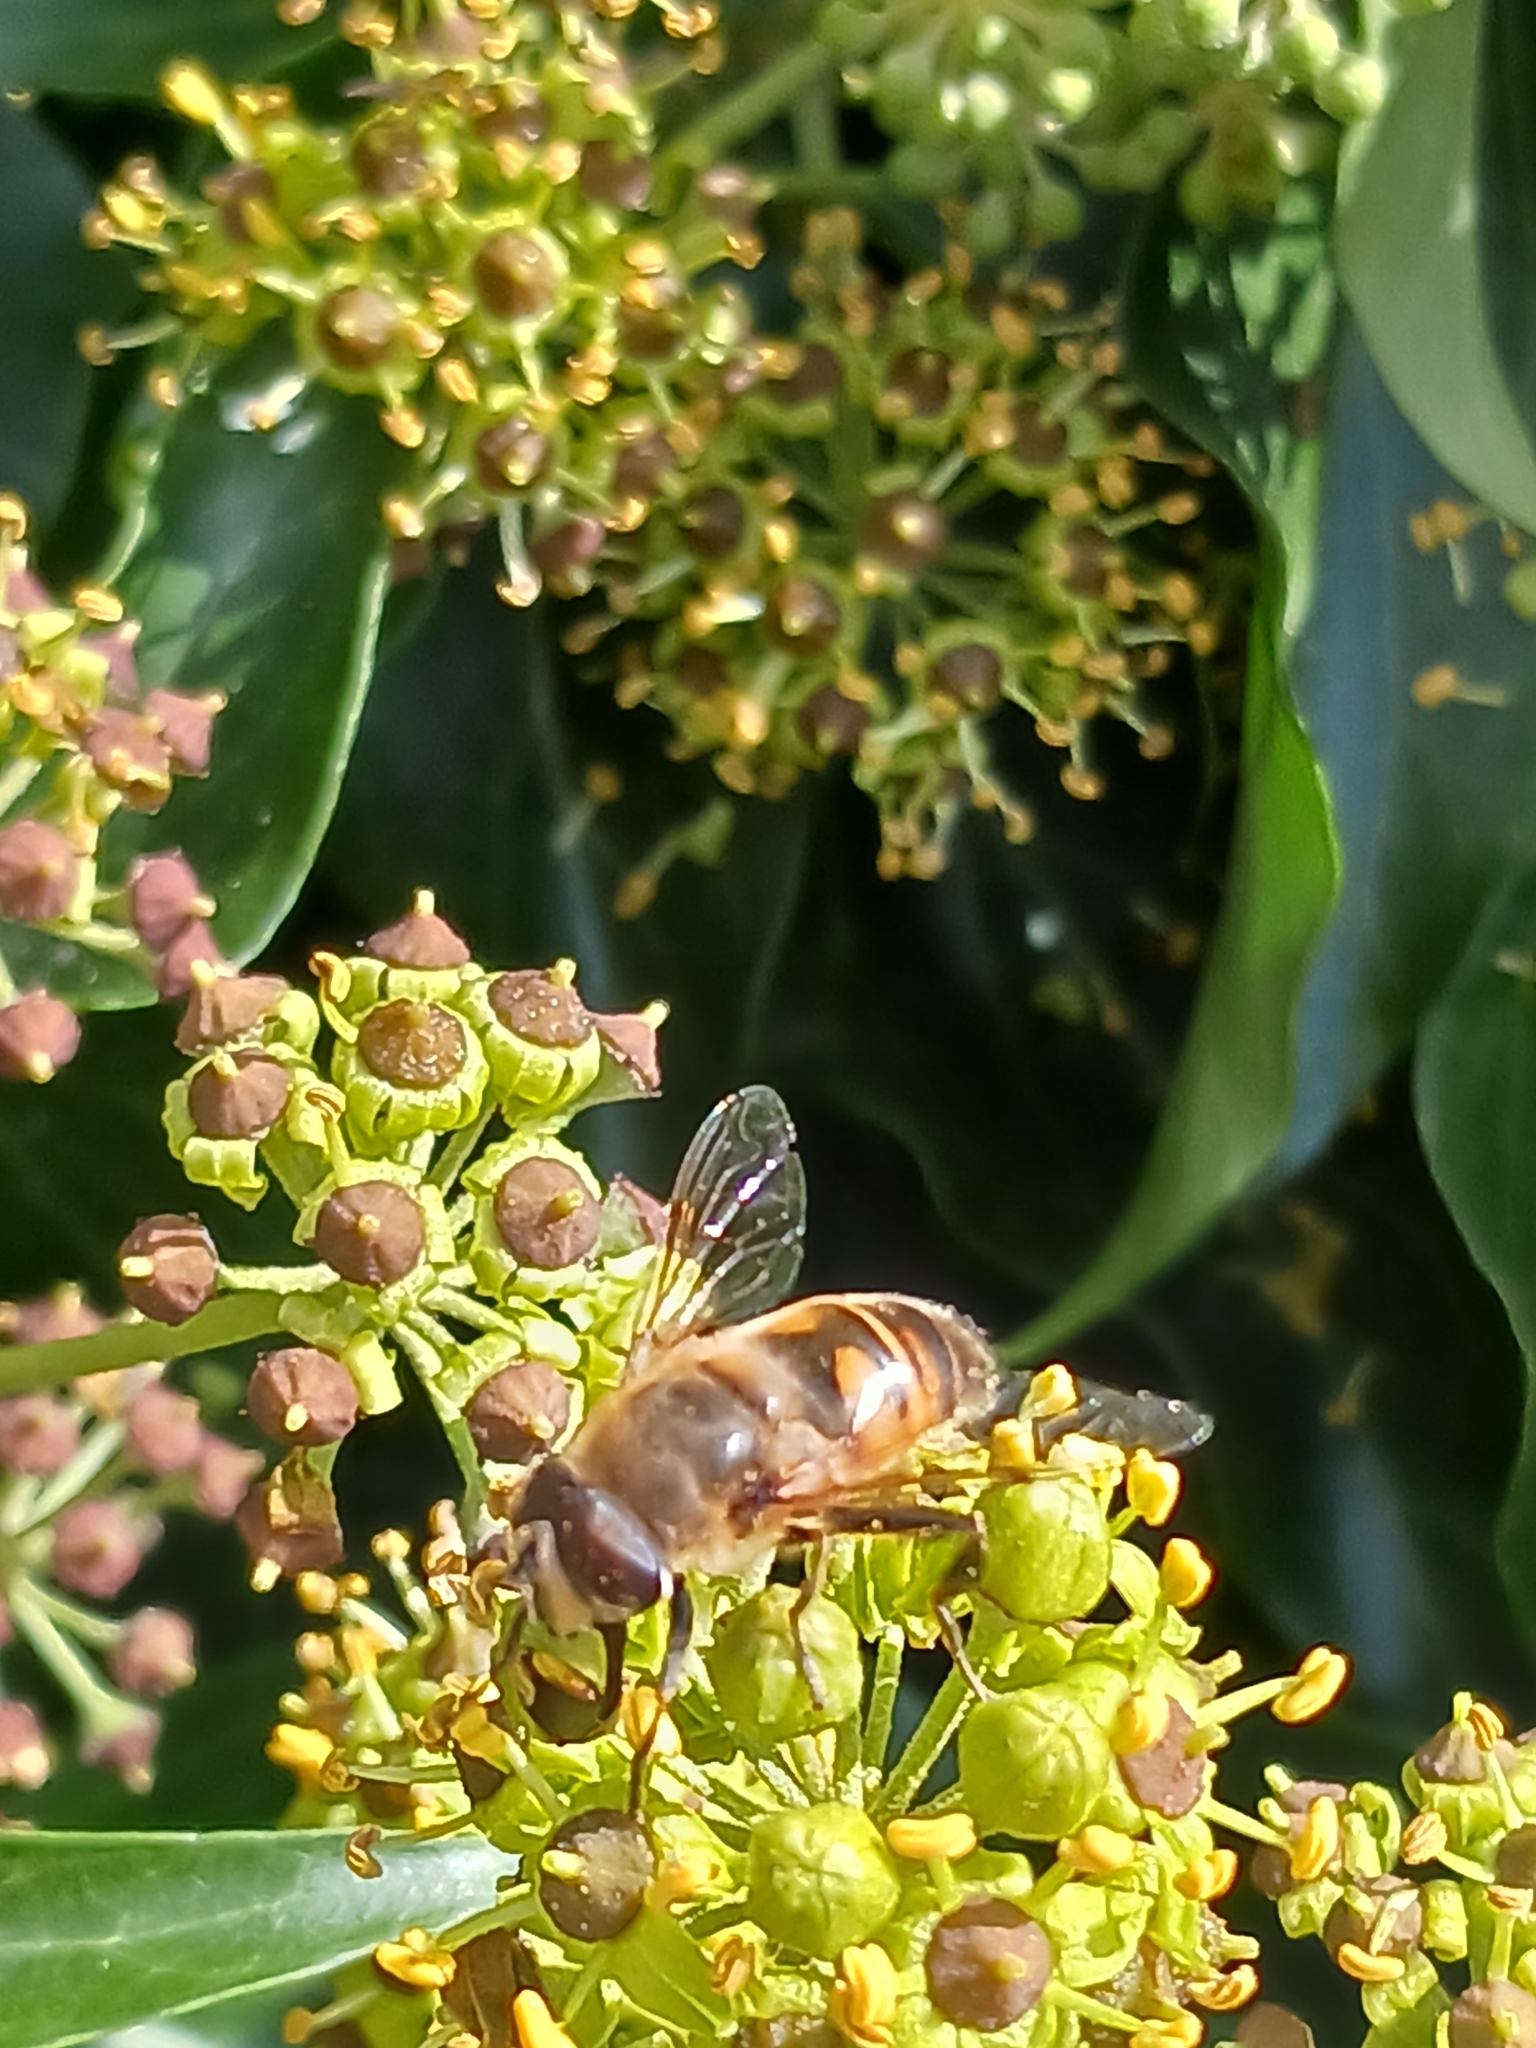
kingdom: Animalia
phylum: Arthropoda
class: Insecta
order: Diptera
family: Syrphidae
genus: Eristalis
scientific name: Eristalis tenax
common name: Drone fly
